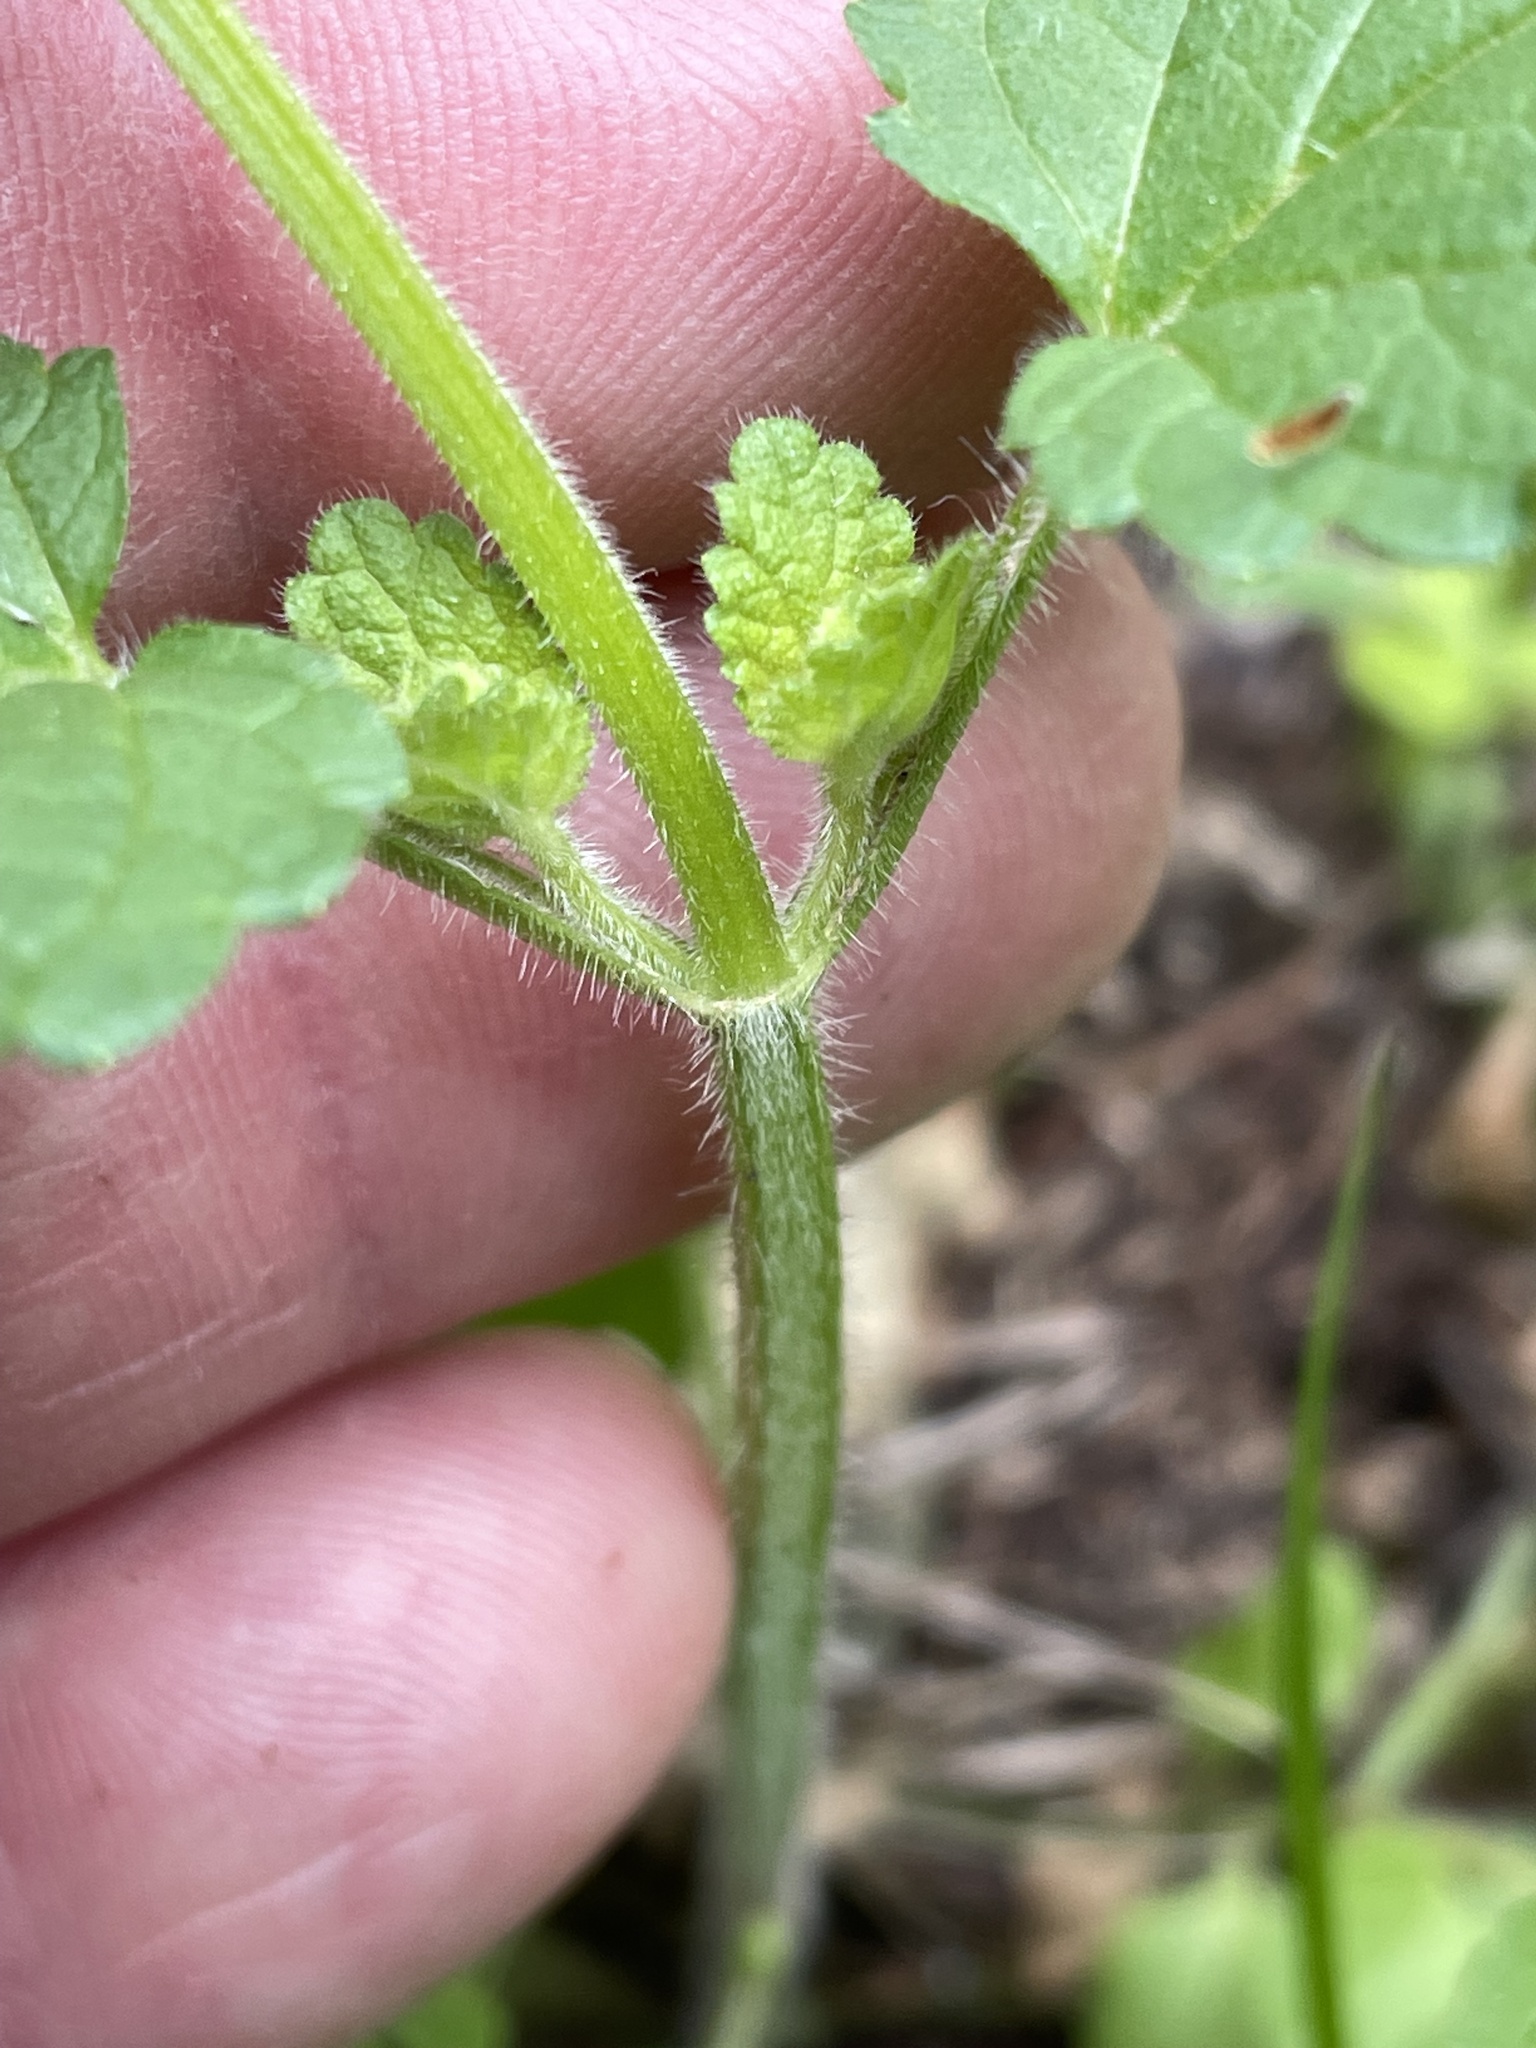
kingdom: Plantae
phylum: Tracheophyta
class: Magnoliopsida
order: Lamiales
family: Lamiaceae
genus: Stachys
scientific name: Stachys
